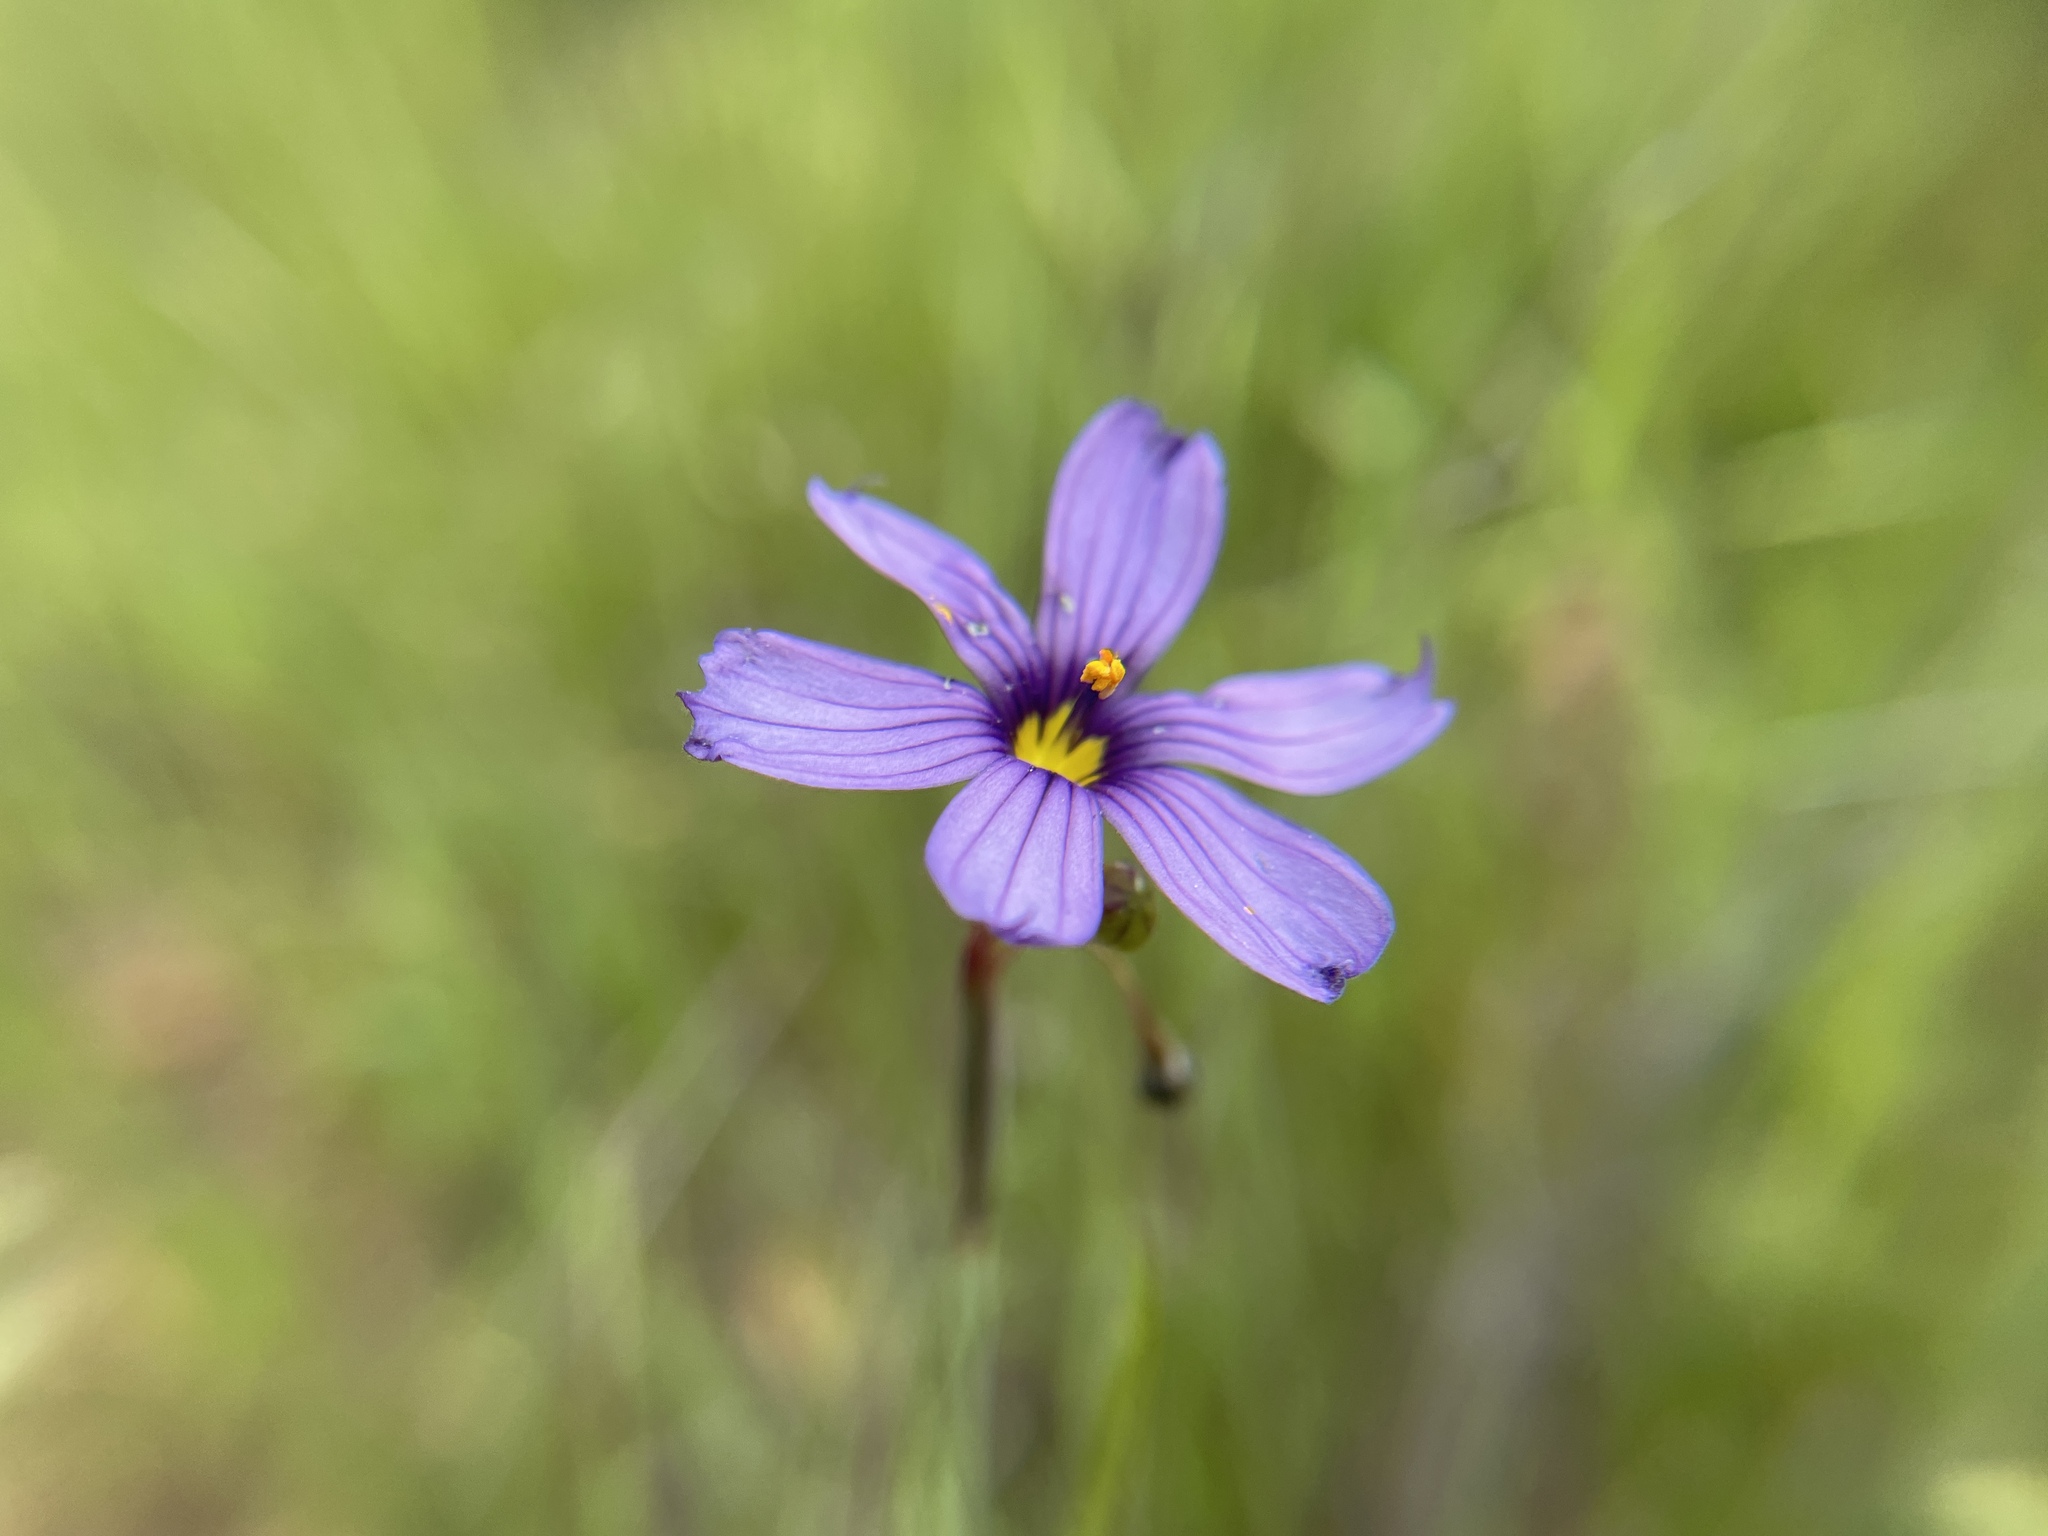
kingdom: Plantae
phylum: Tracheophyta
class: Liliopsida
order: Asparagales
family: Iridaceae
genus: Sisyrinchium
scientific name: Sisyrinchium bellum
